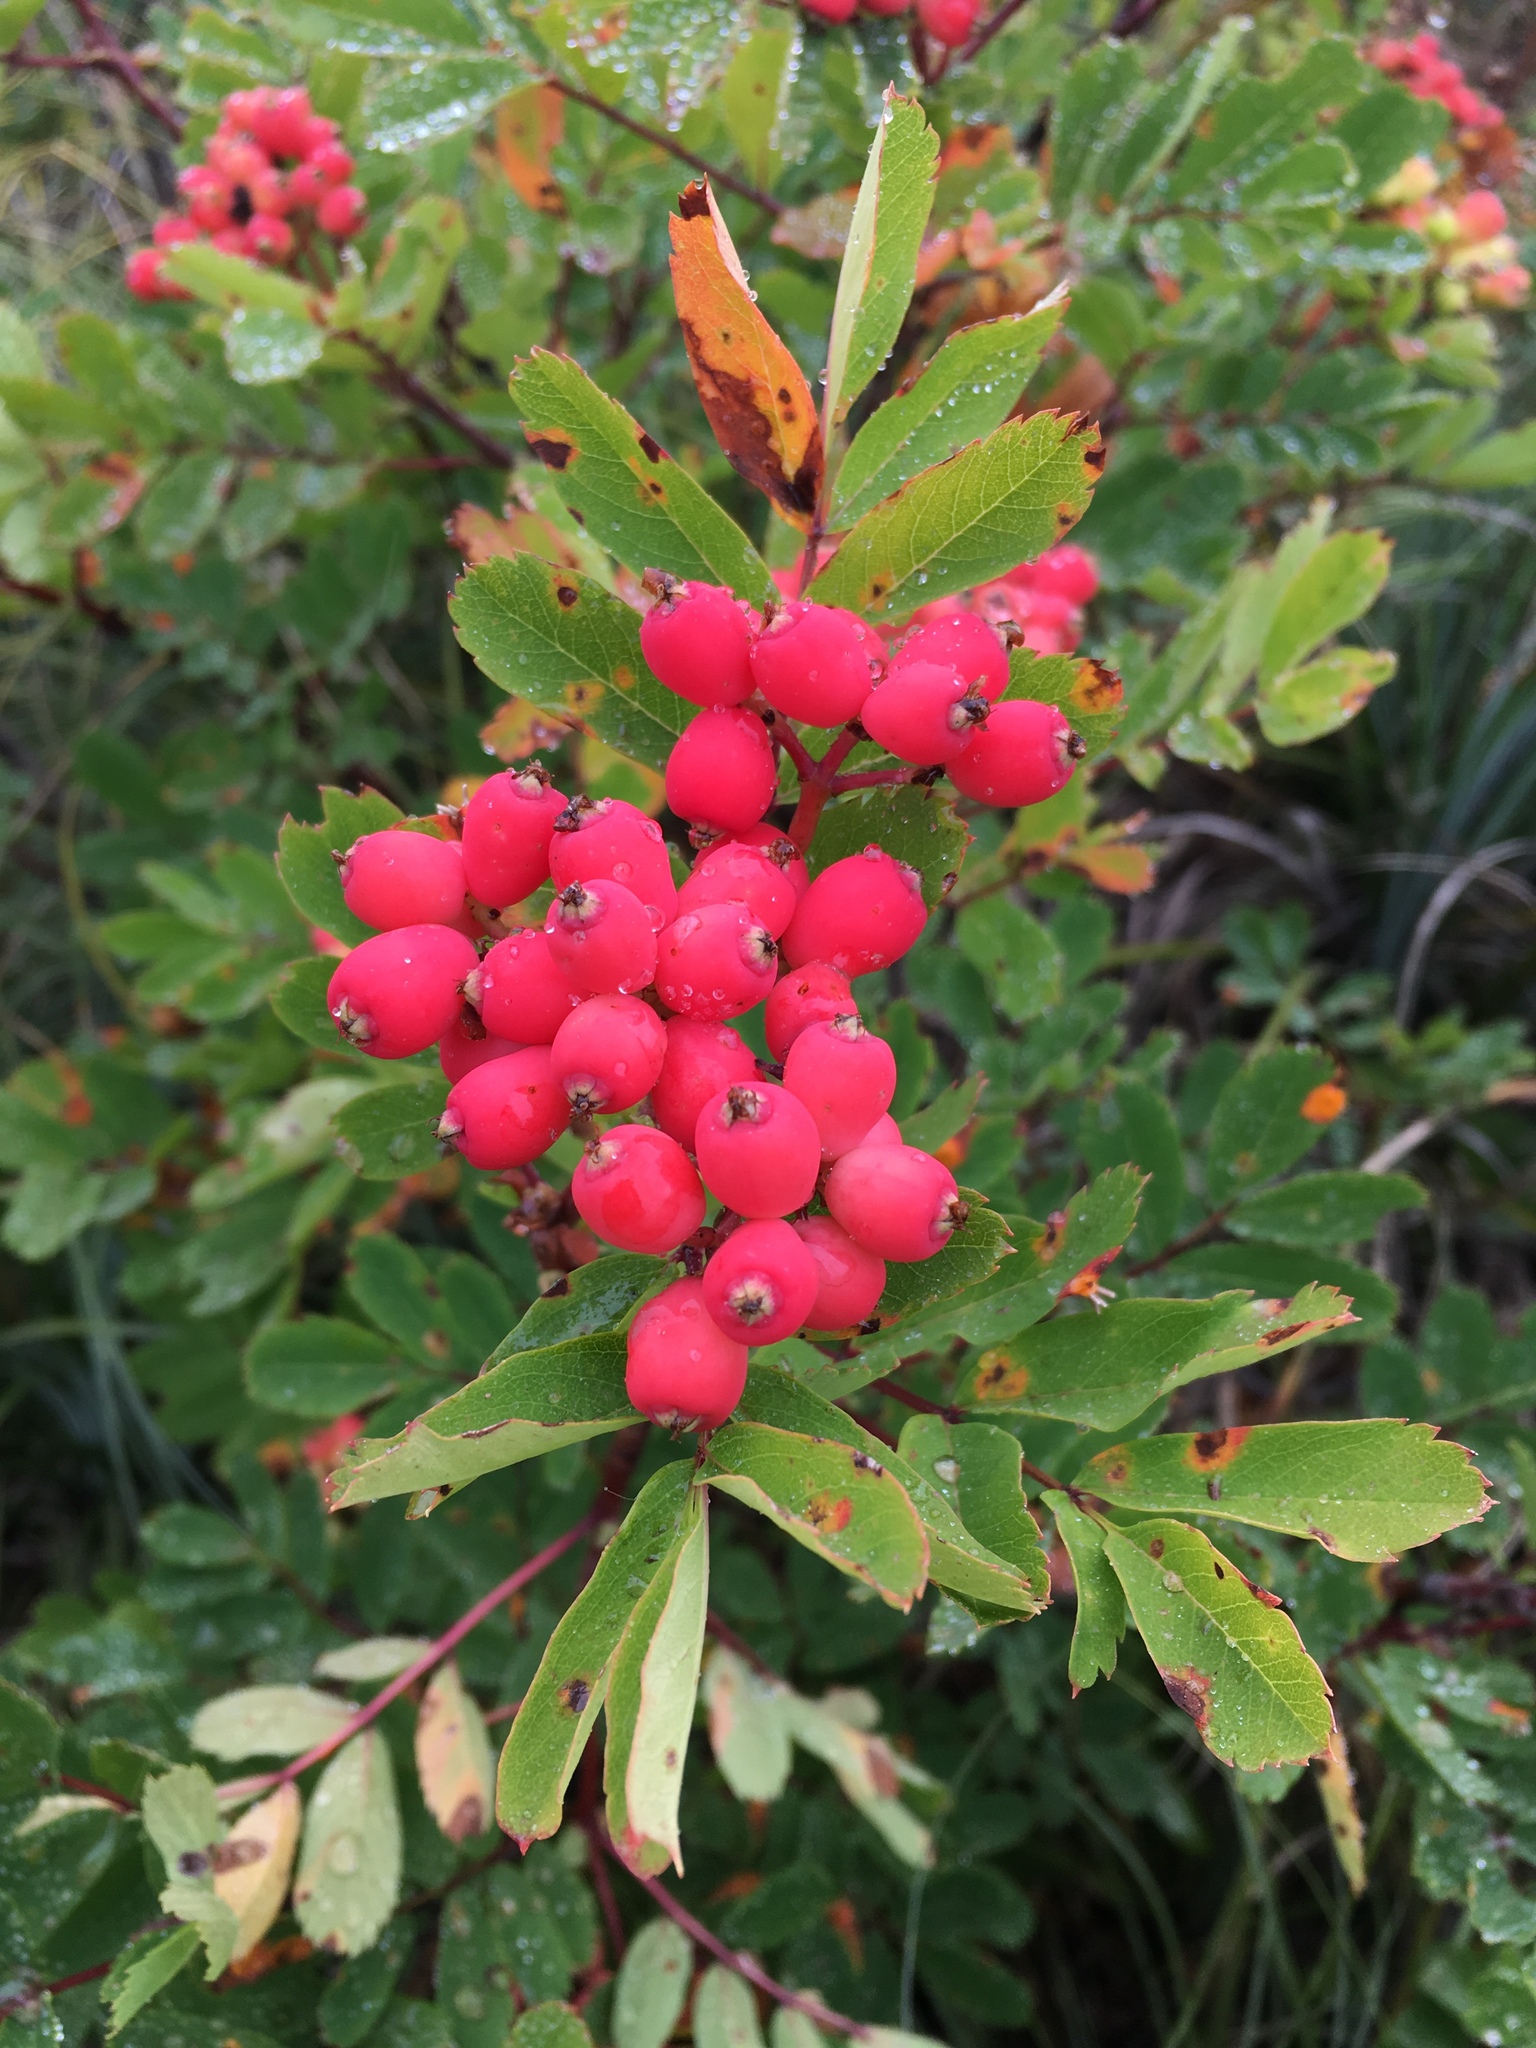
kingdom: Plantae
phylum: Tracheophyta
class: Magnoliopsida
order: Rosales
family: Rosaceae
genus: Sorbus
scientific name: Sorbus sitchensis
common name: Sitka mountain-ash
